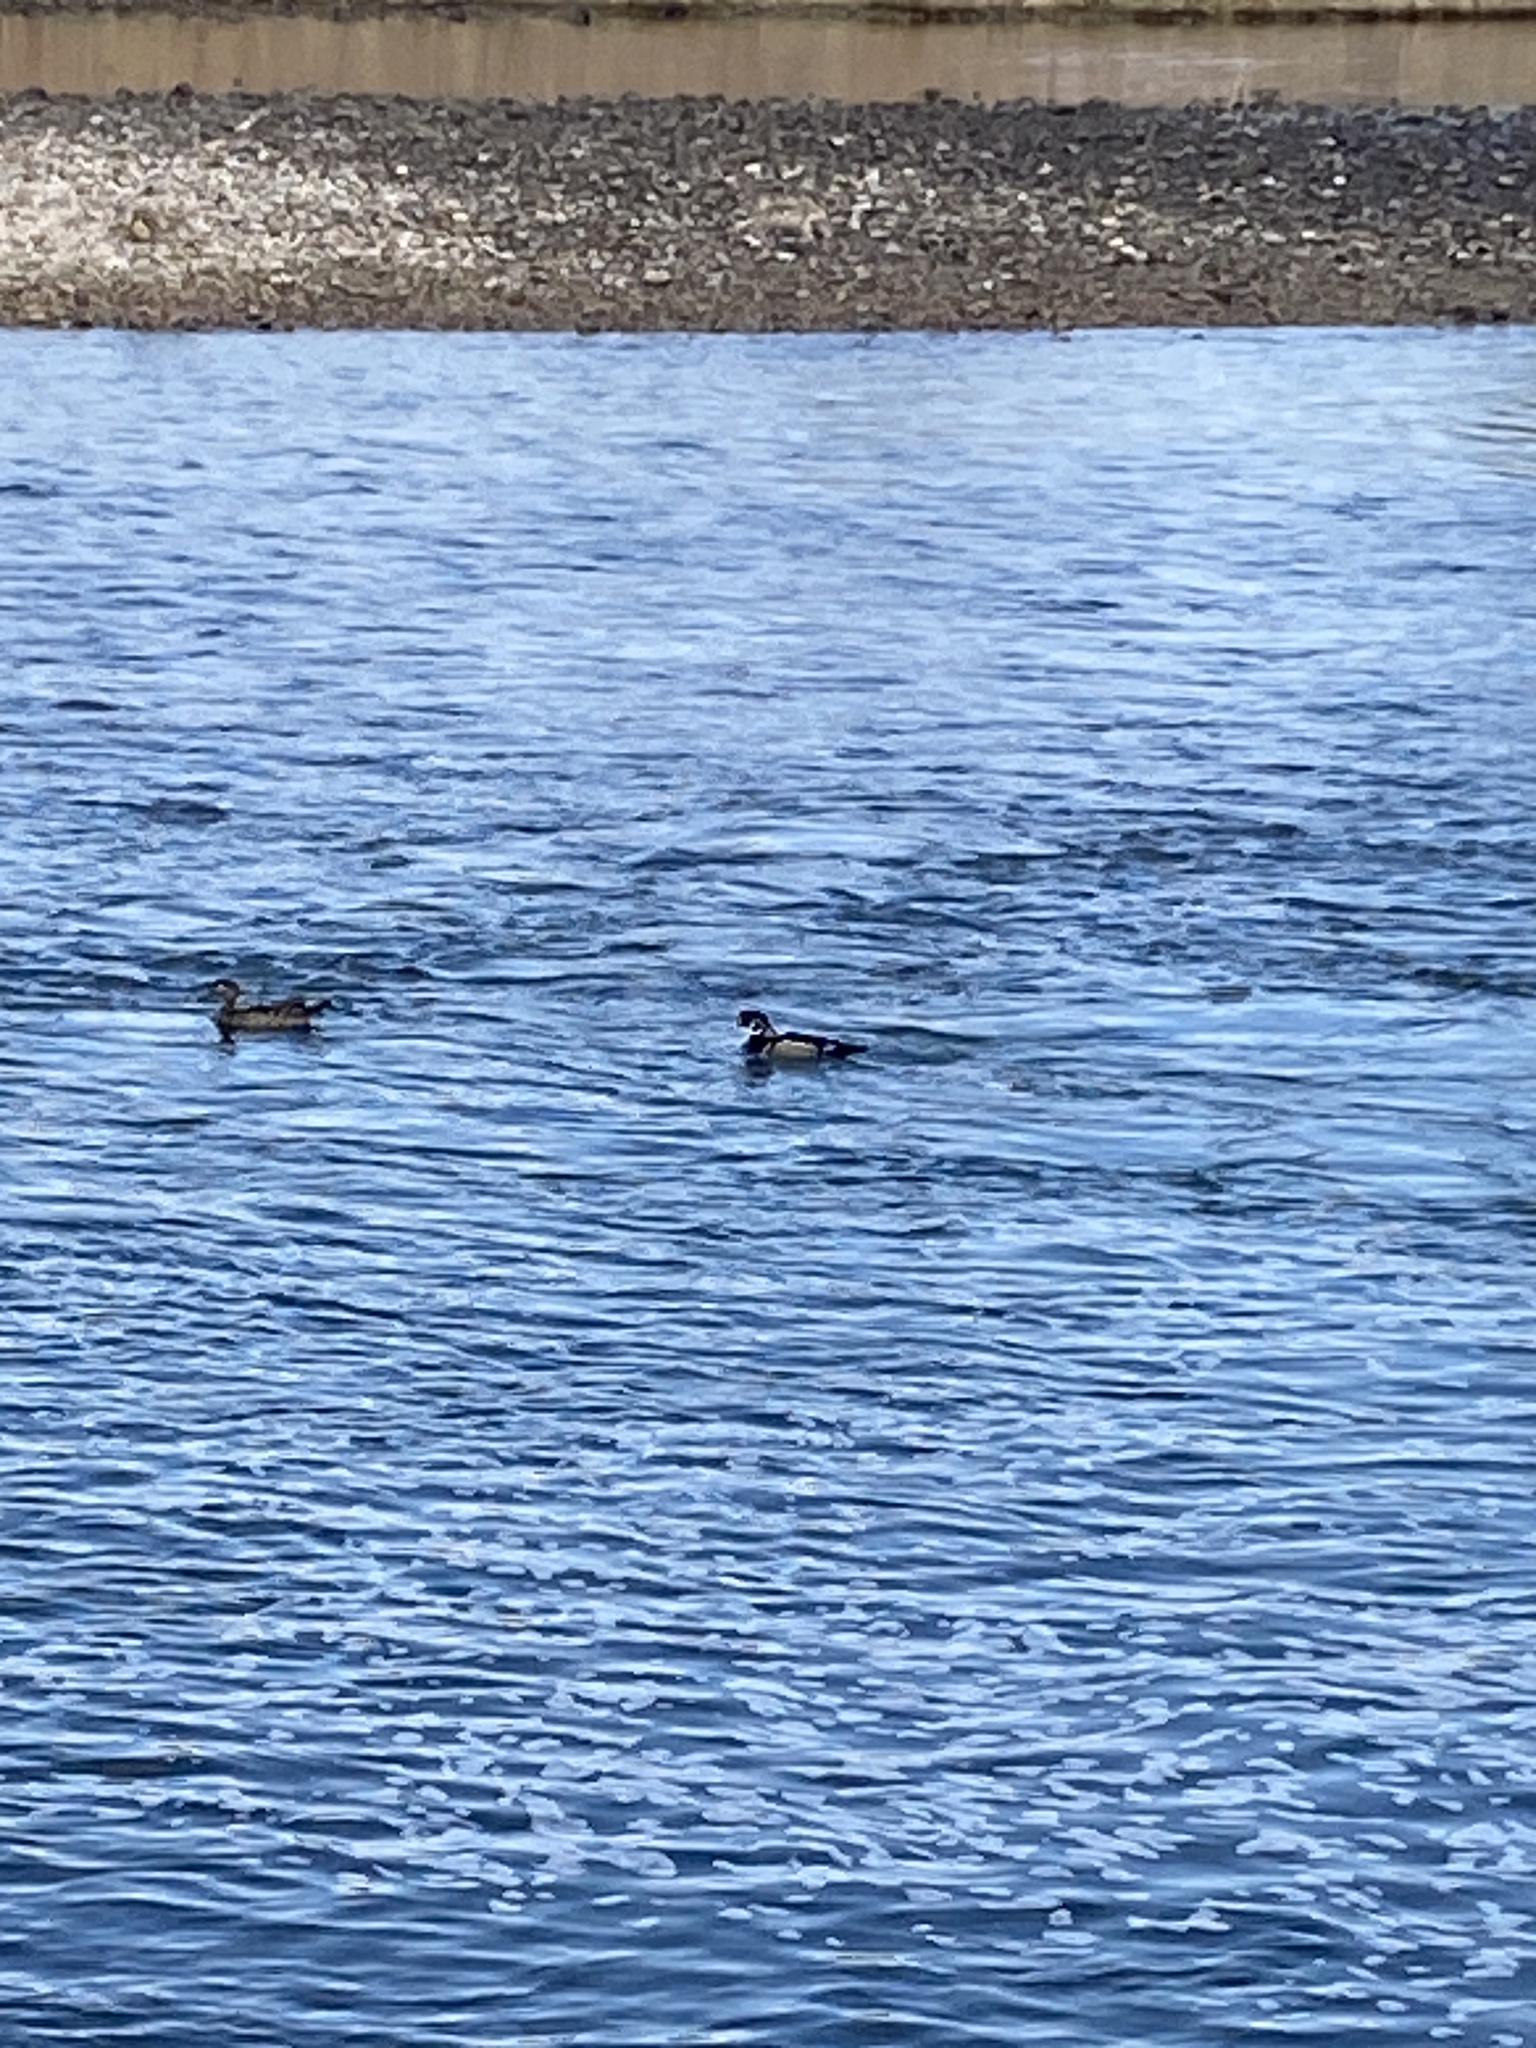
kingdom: Animalia
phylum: Chordata
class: Aves
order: Anseriformes
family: Anatidae
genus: Aix
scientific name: Aix sponsa
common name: Wood duck
